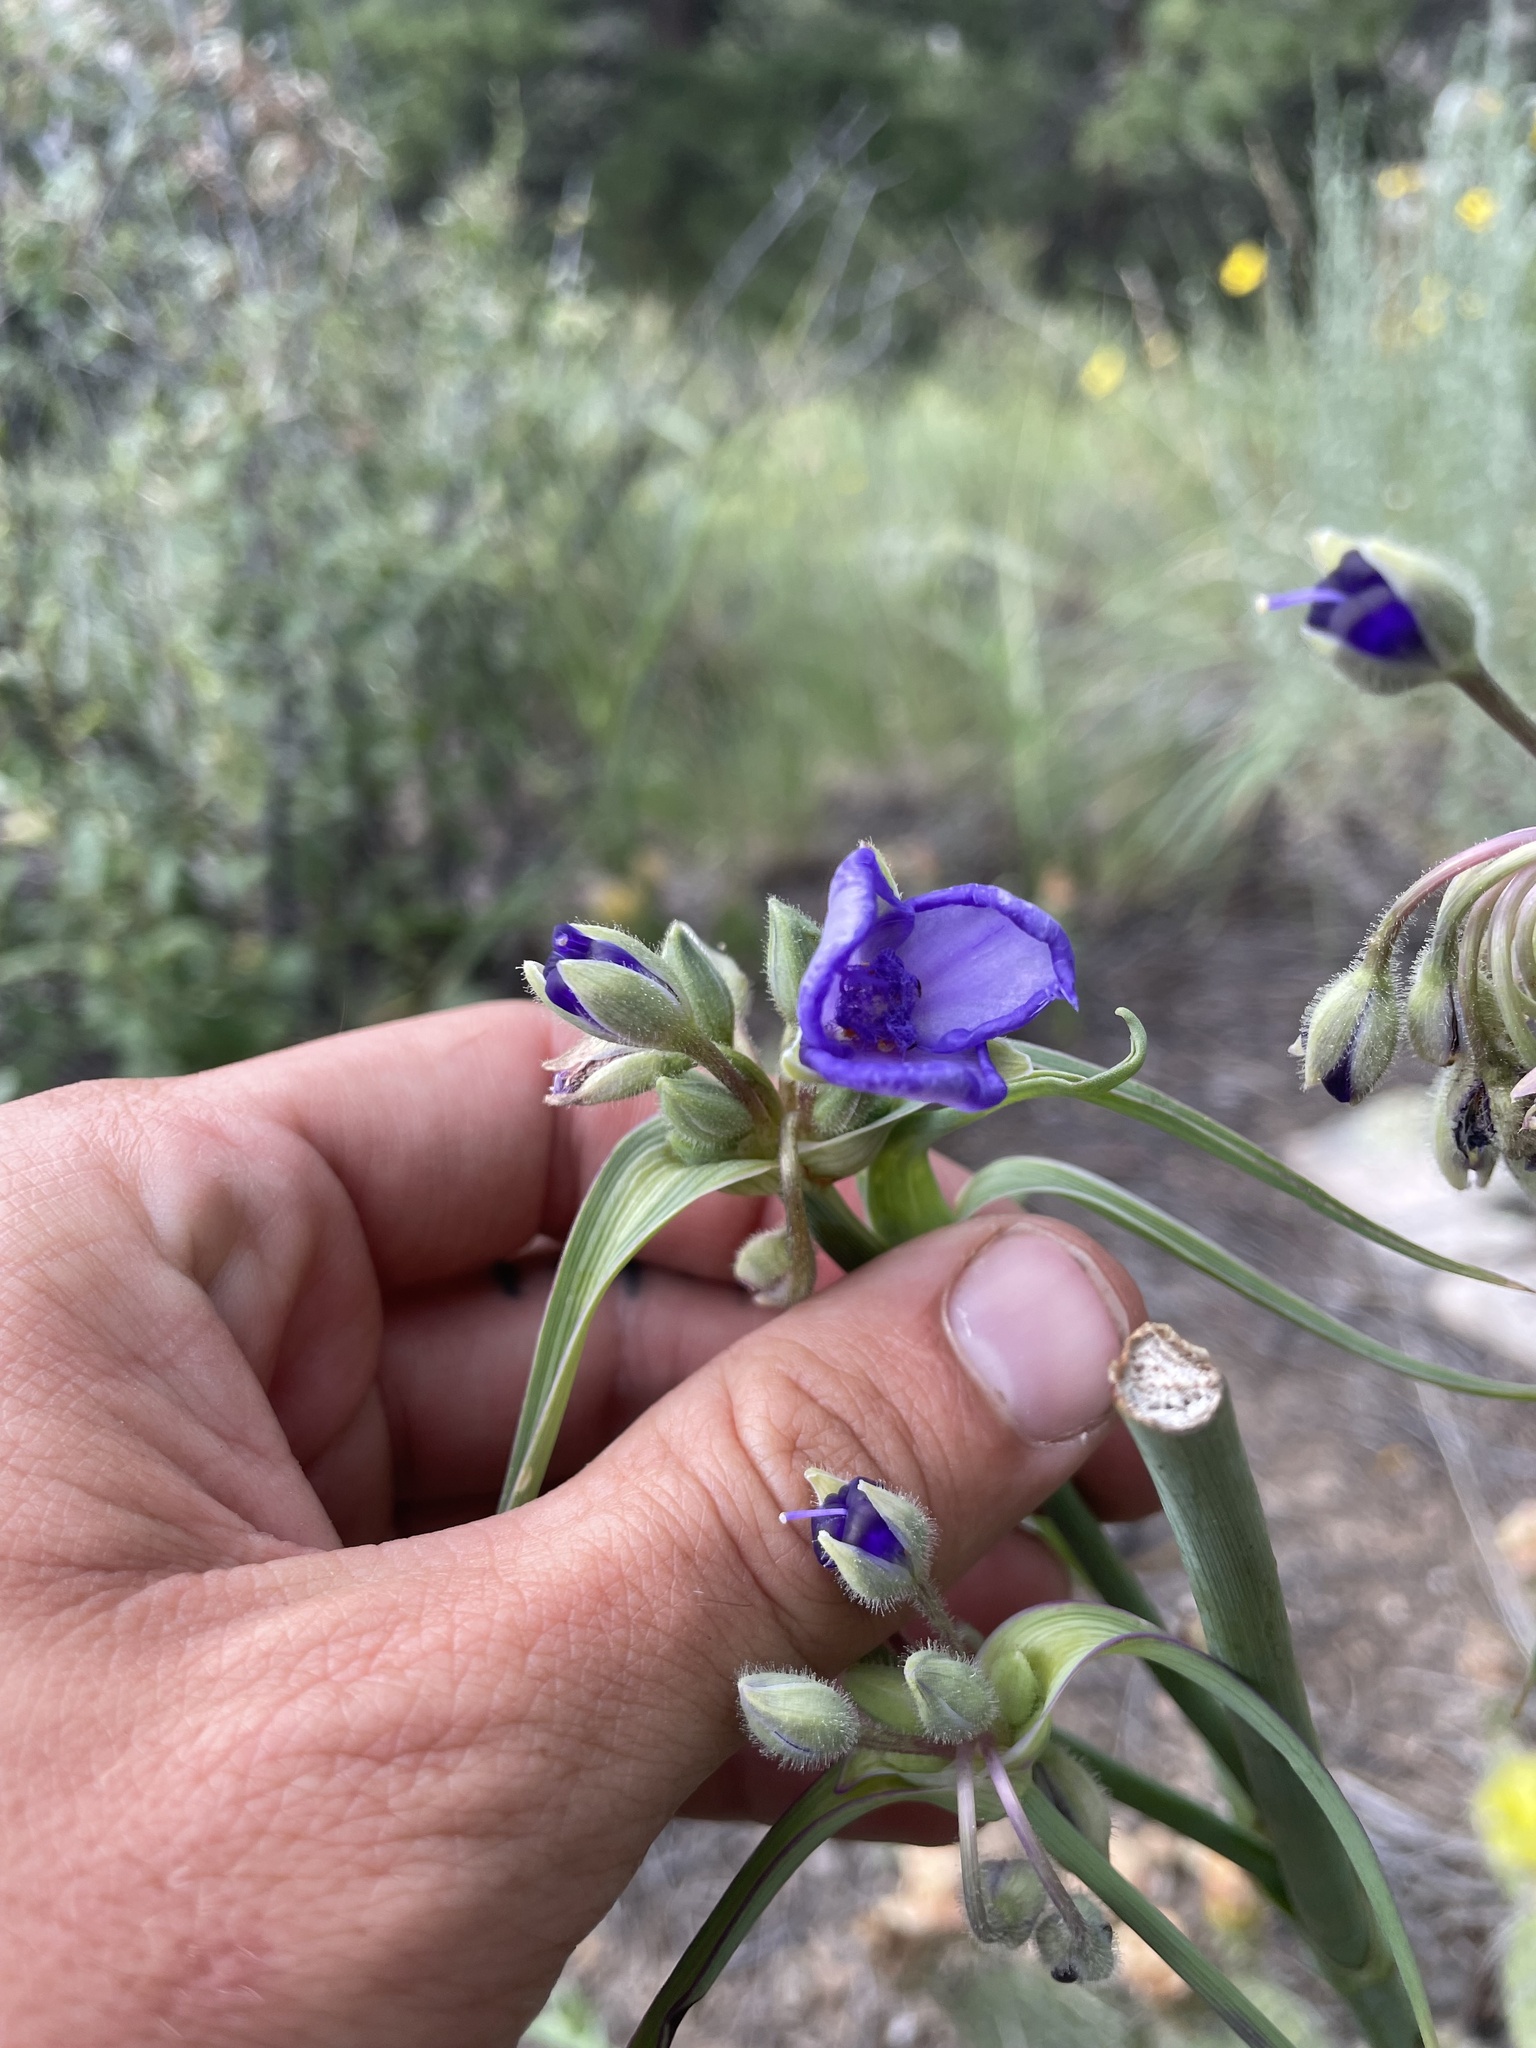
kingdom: Plantae
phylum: Tracheophyta
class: Liliopsida
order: Commelinales
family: Commelinaceae
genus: Tradescantia
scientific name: Tradescantia occidentalis
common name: Prairie spiderwort
